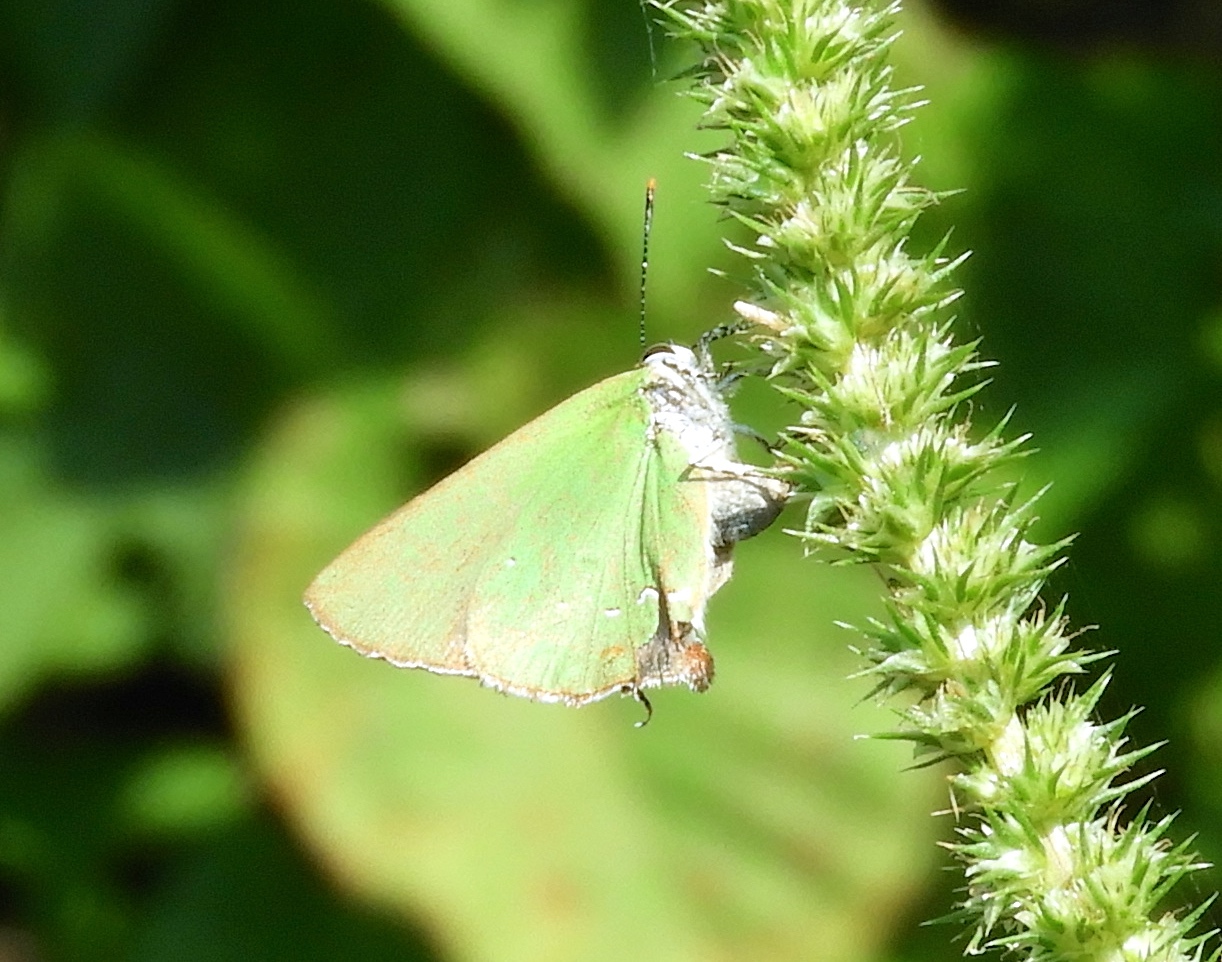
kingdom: Animalia
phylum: Arthropoda
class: Insecta
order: Lepidoptera
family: Lycaenidae
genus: Cyanophrys
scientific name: Cyanophrys
